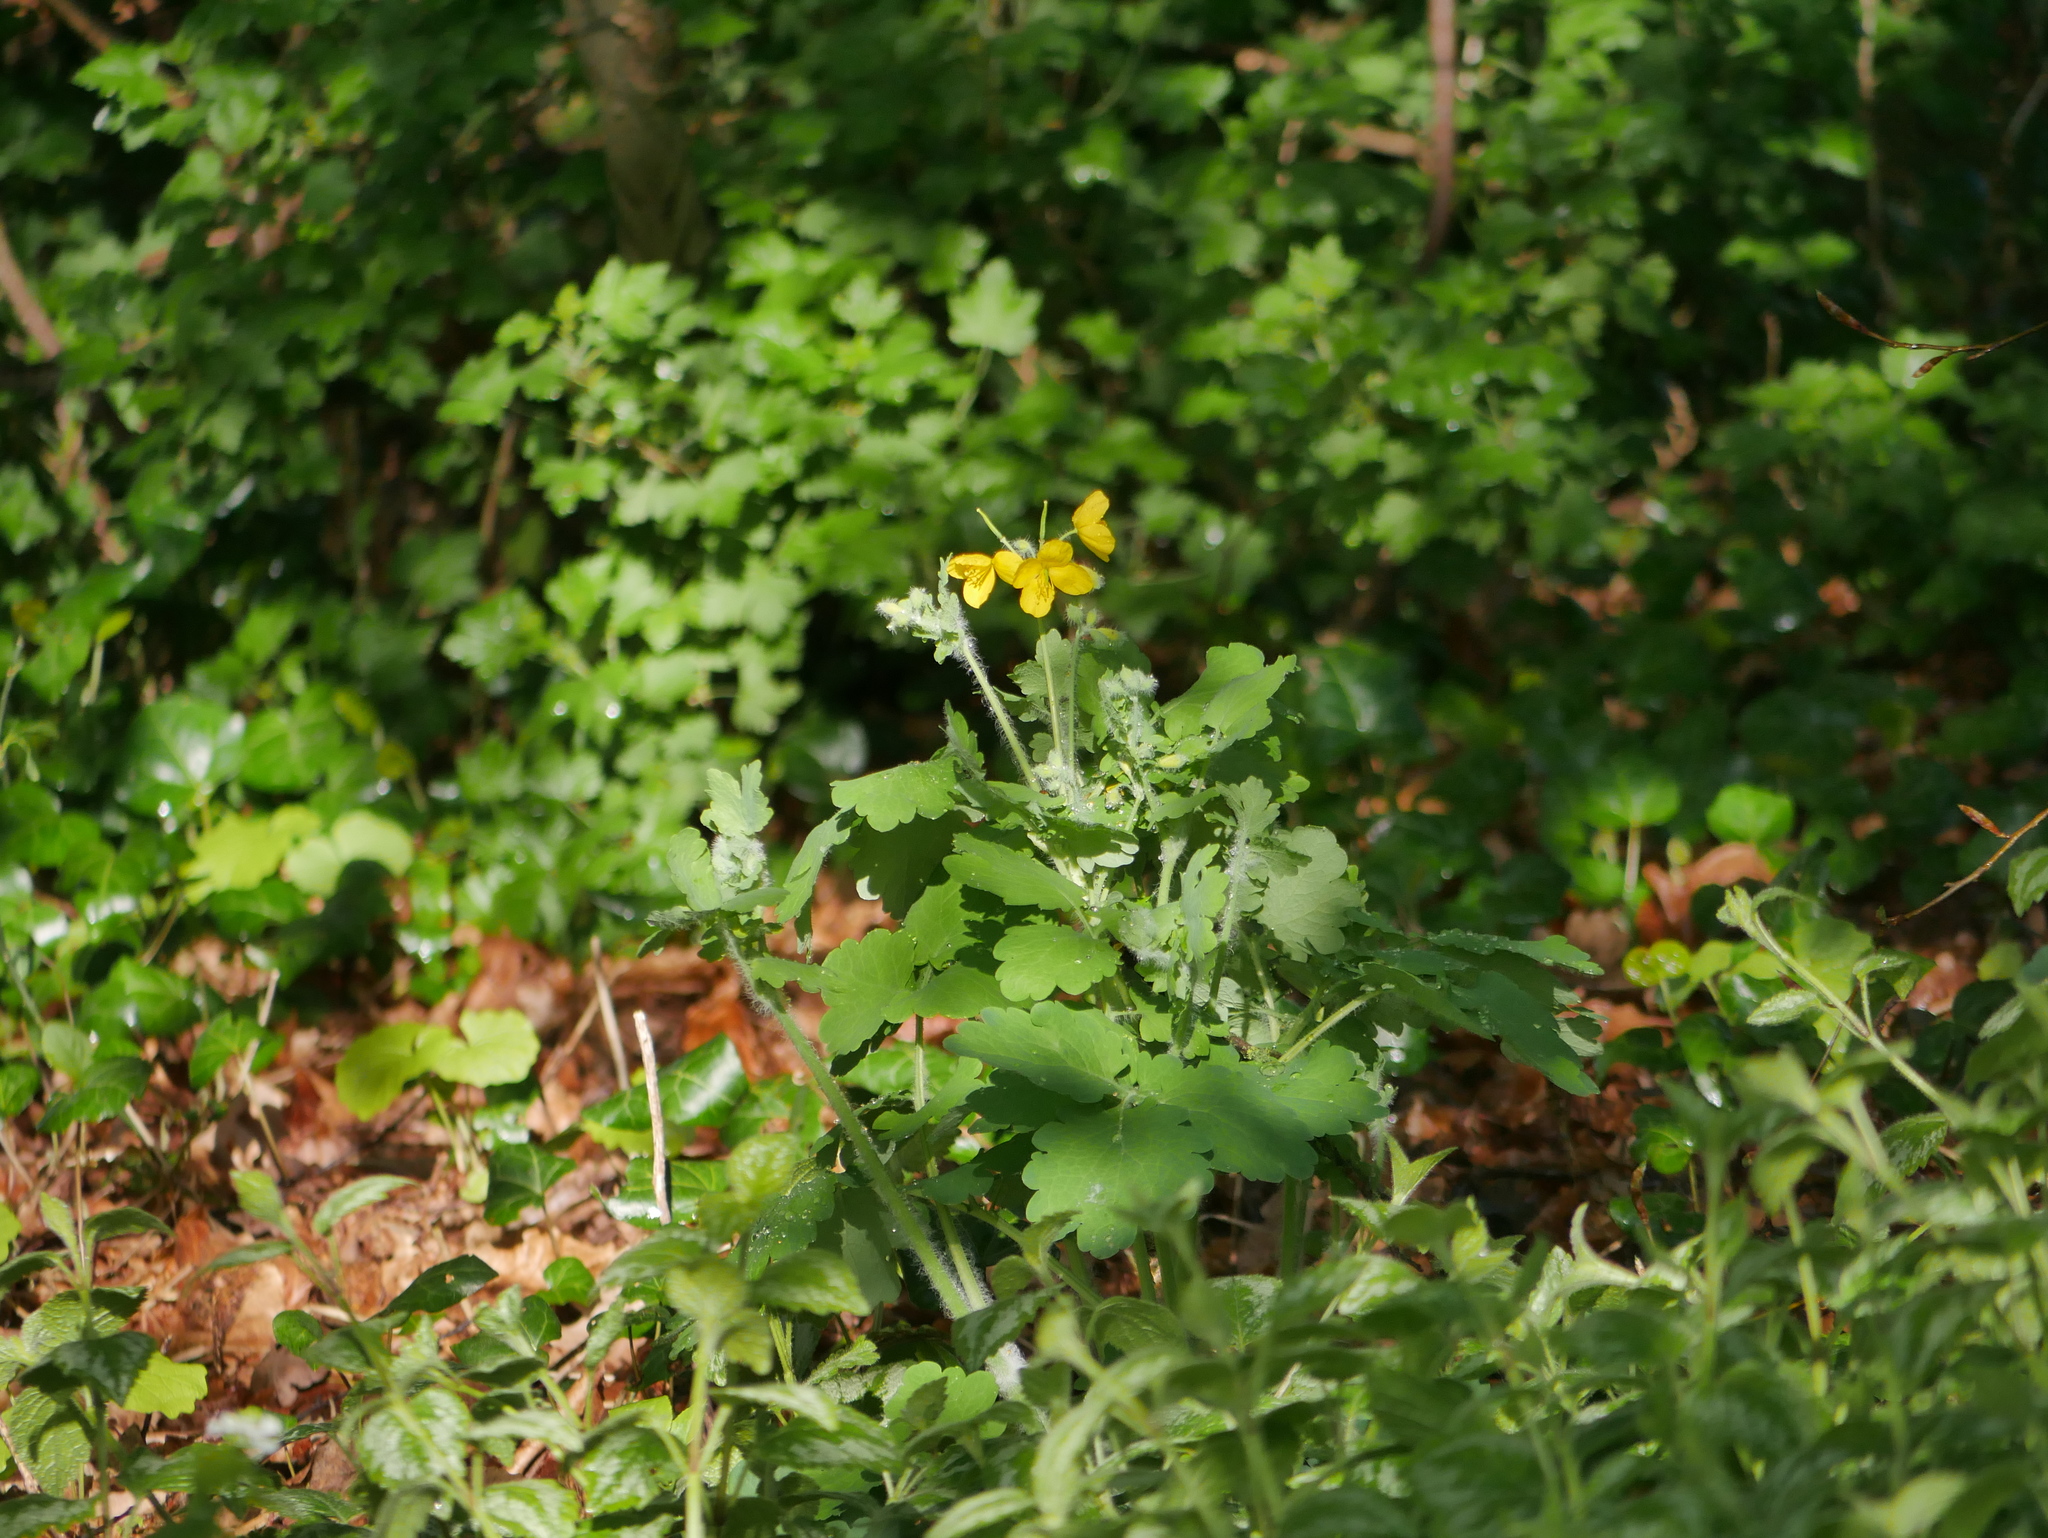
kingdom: Plantae
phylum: Tracheophyta
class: Magnoliopsida
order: Ranunculales
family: Papaveraceae
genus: Chelidonium
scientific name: Chelidonium majus
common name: Greater celandine
